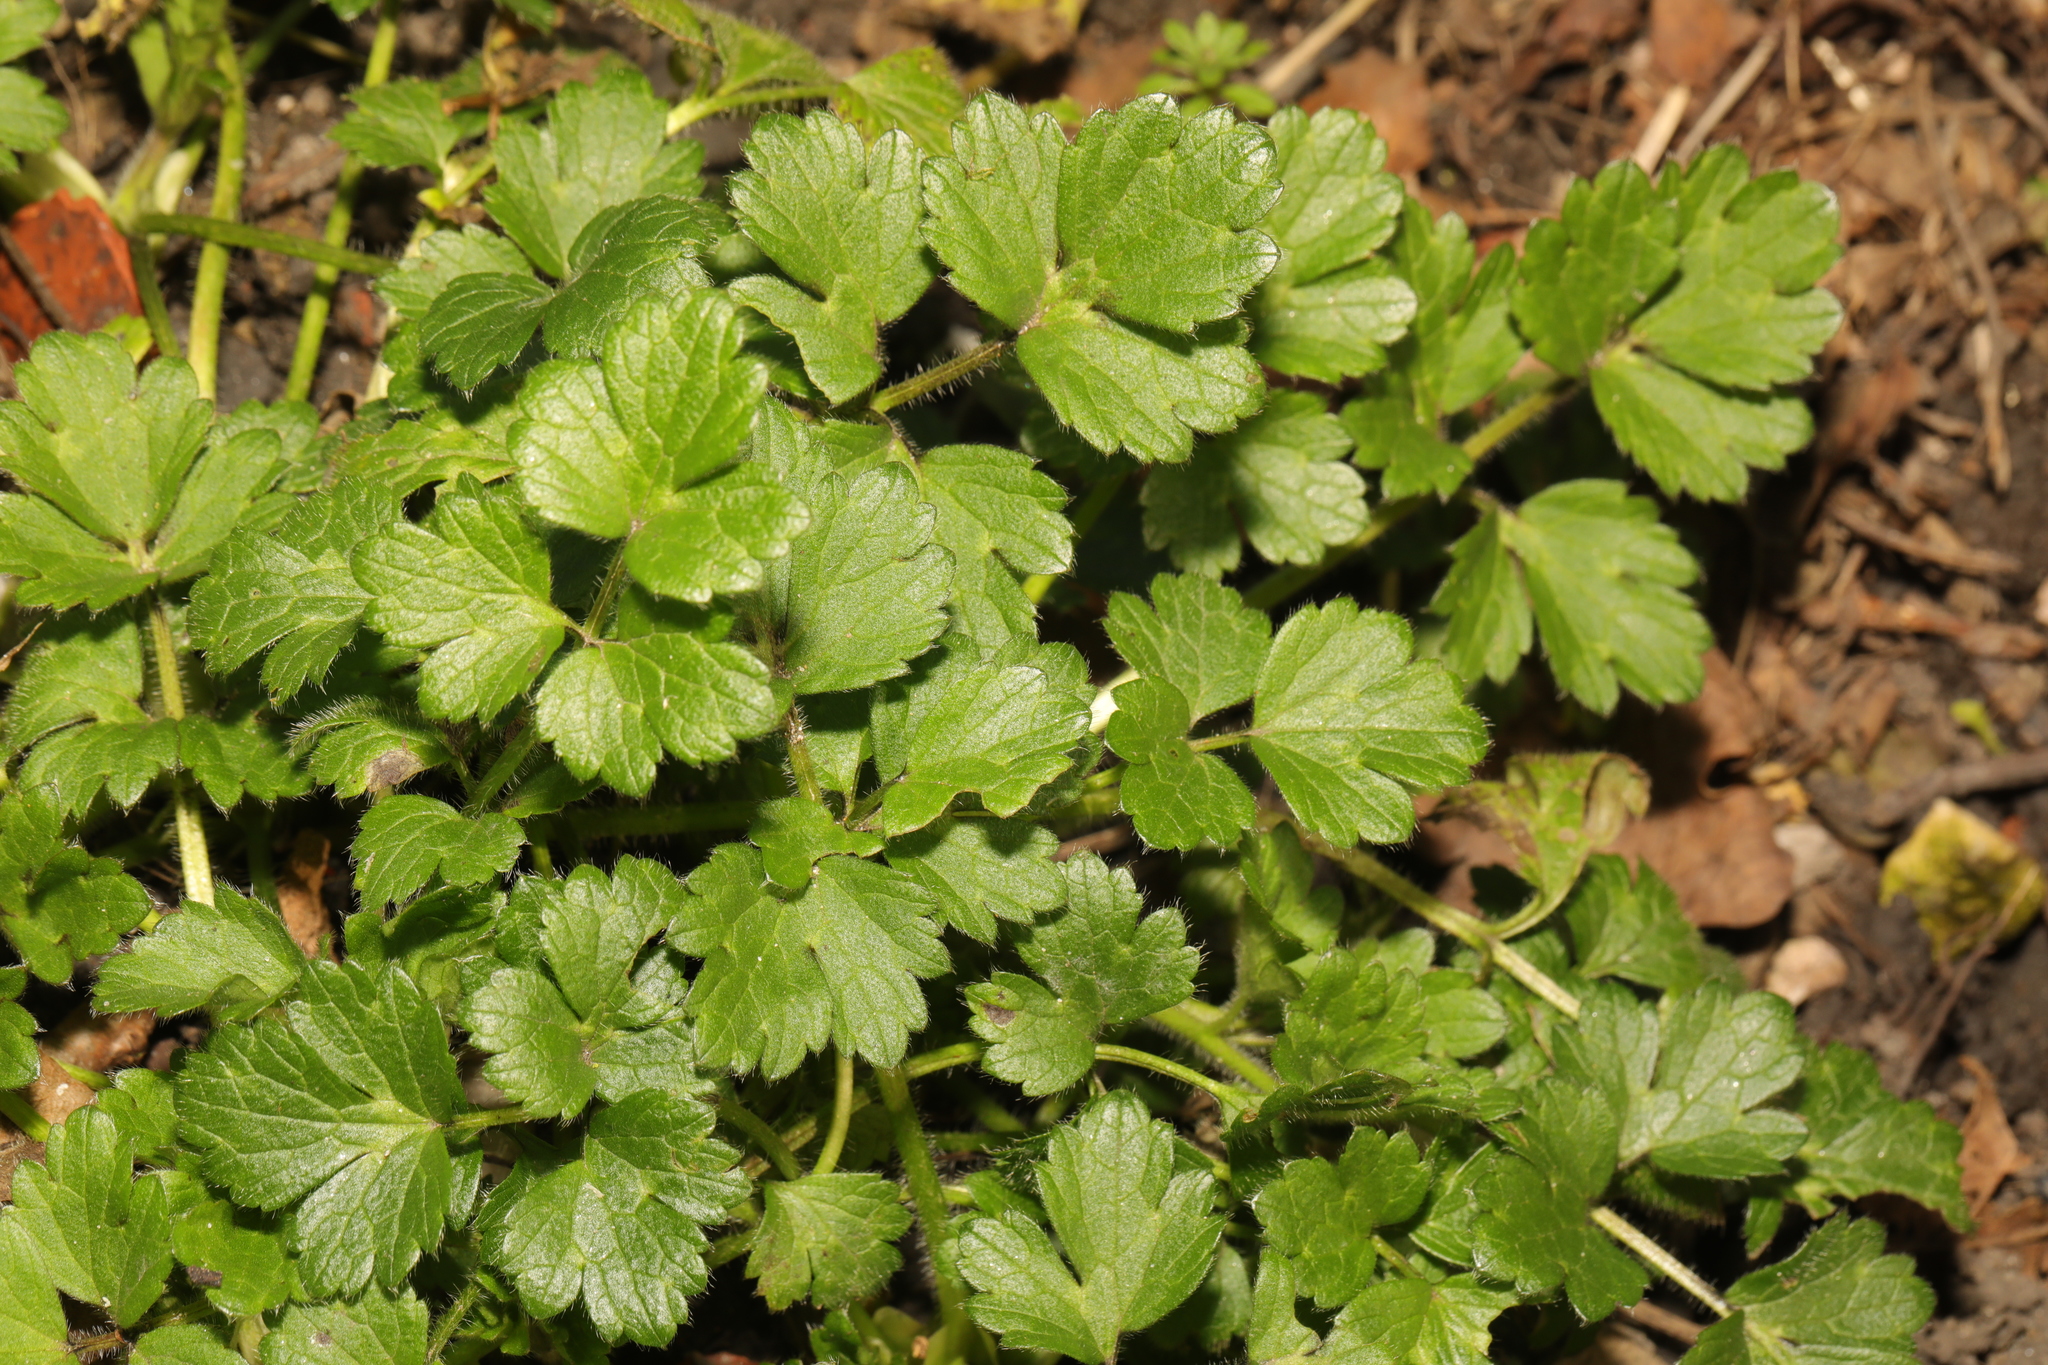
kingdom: Plantae
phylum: Tracheophyta
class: Magnoliopsida
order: Ranunculales
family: Ranunculaceae
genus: Ranunculus
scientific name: Ranunculus repens
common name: Creeping buttercup
